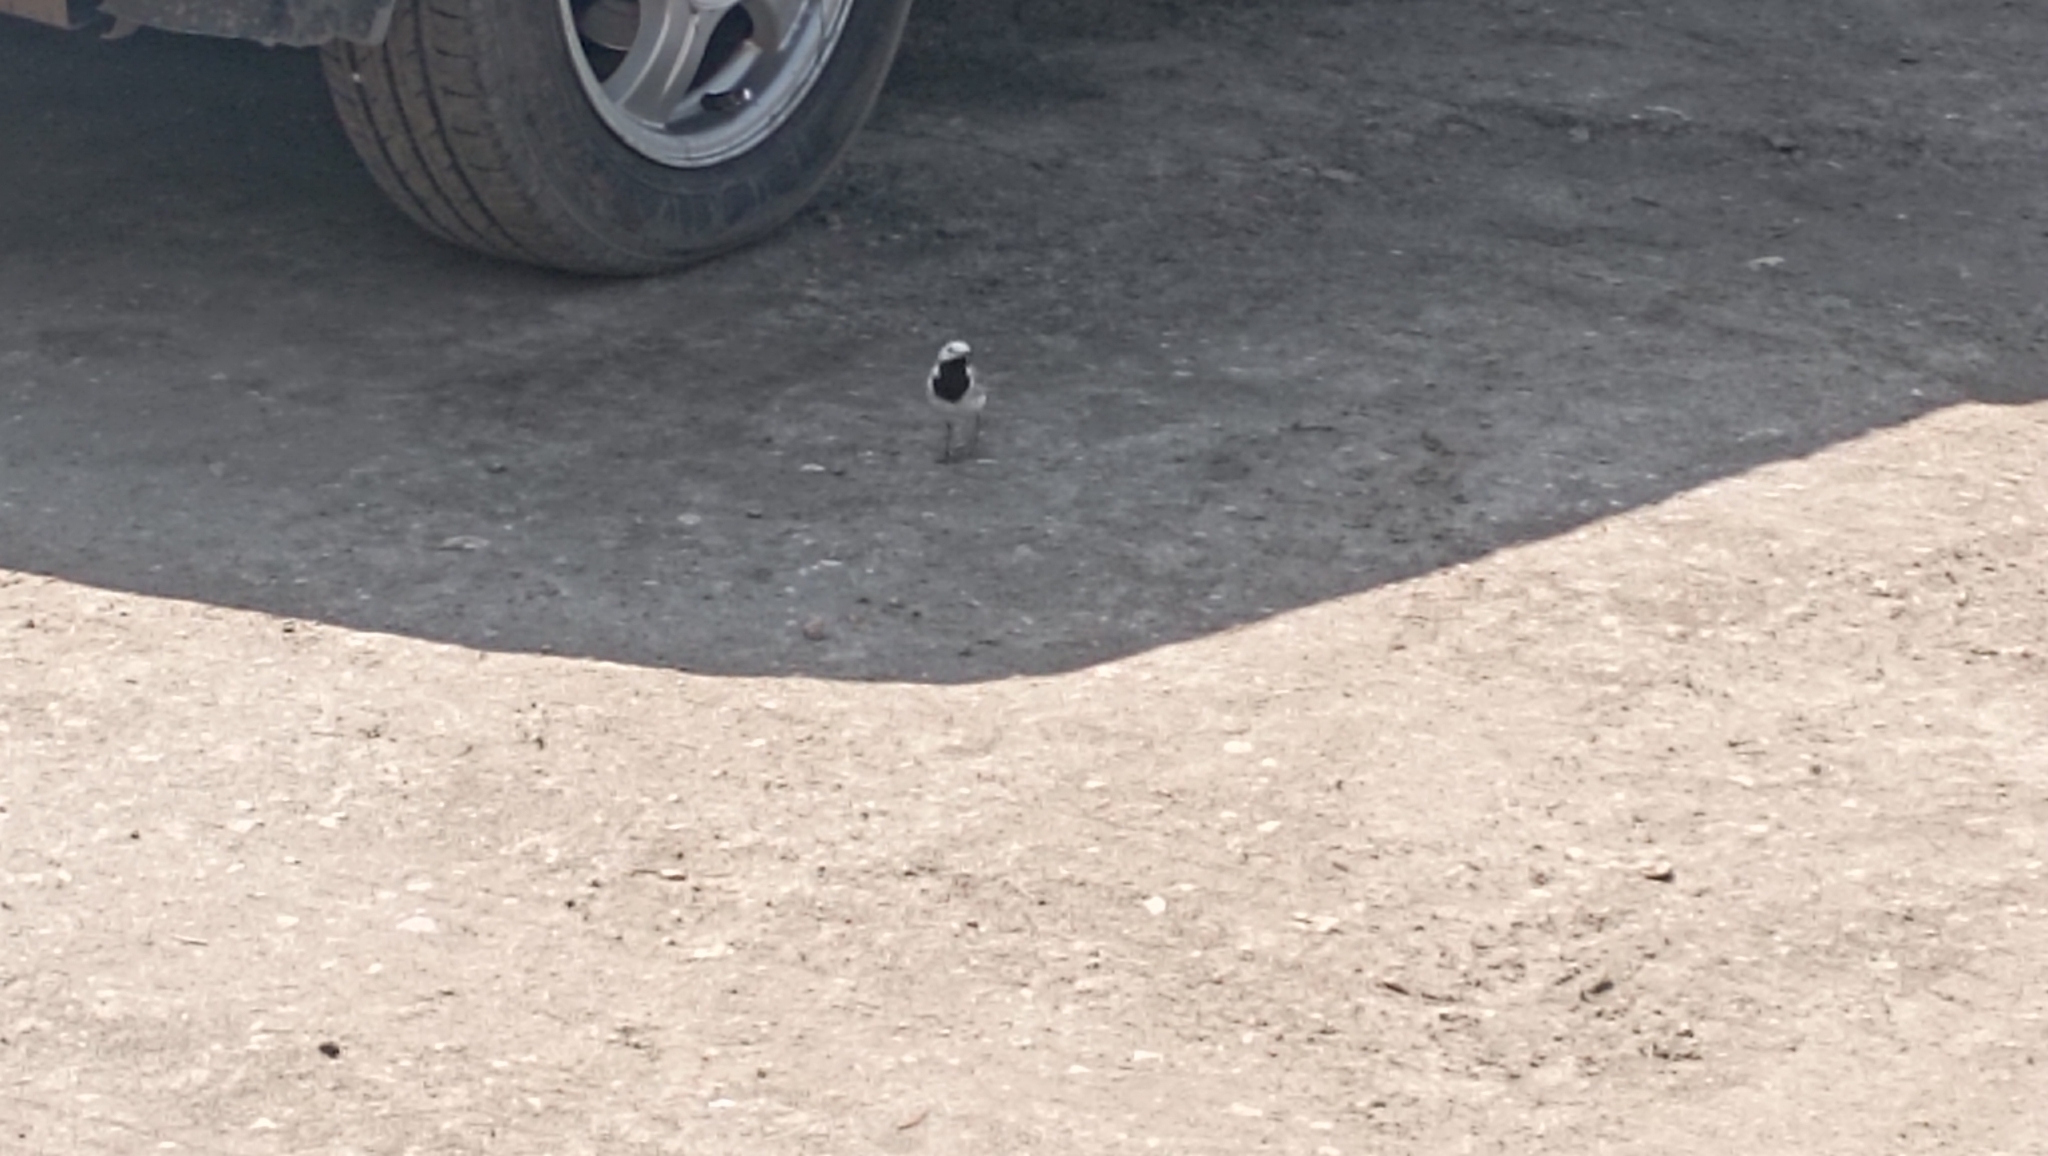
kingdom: Animalia
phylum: Chordata
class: Aves
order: Passeriformes
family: Motacillidae
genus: Motacilla
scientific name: Motacilla alba
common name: White wagtail
